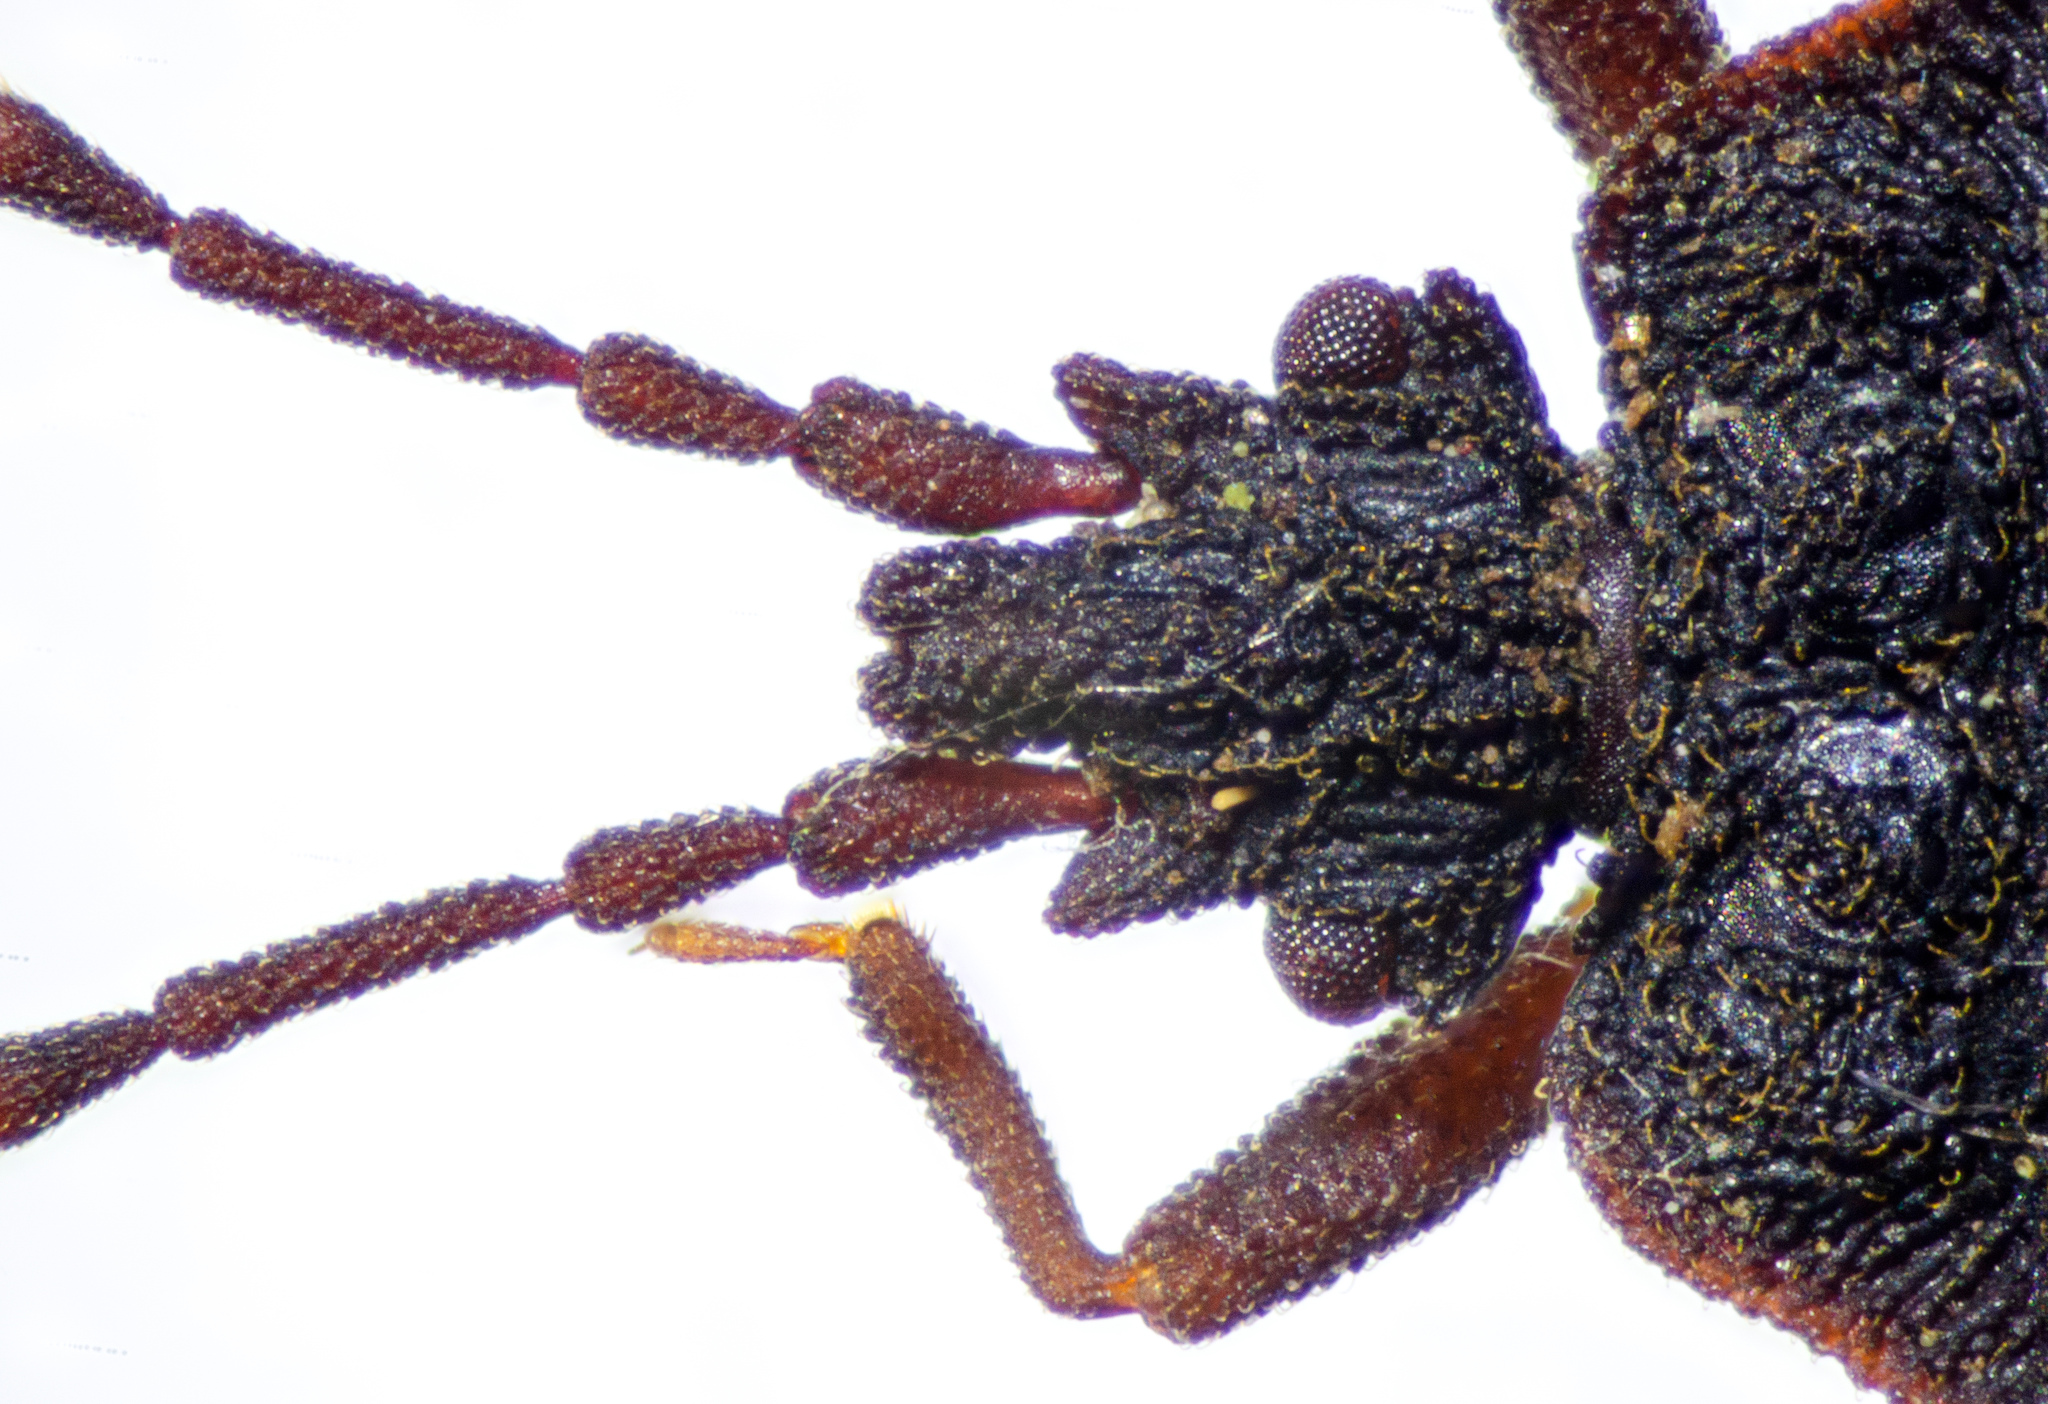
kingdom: Animalia
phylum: Arthropoda
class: Insecta
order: Hemiptera
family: Aradidae
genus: Mezira
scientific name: Mezira pacifica
